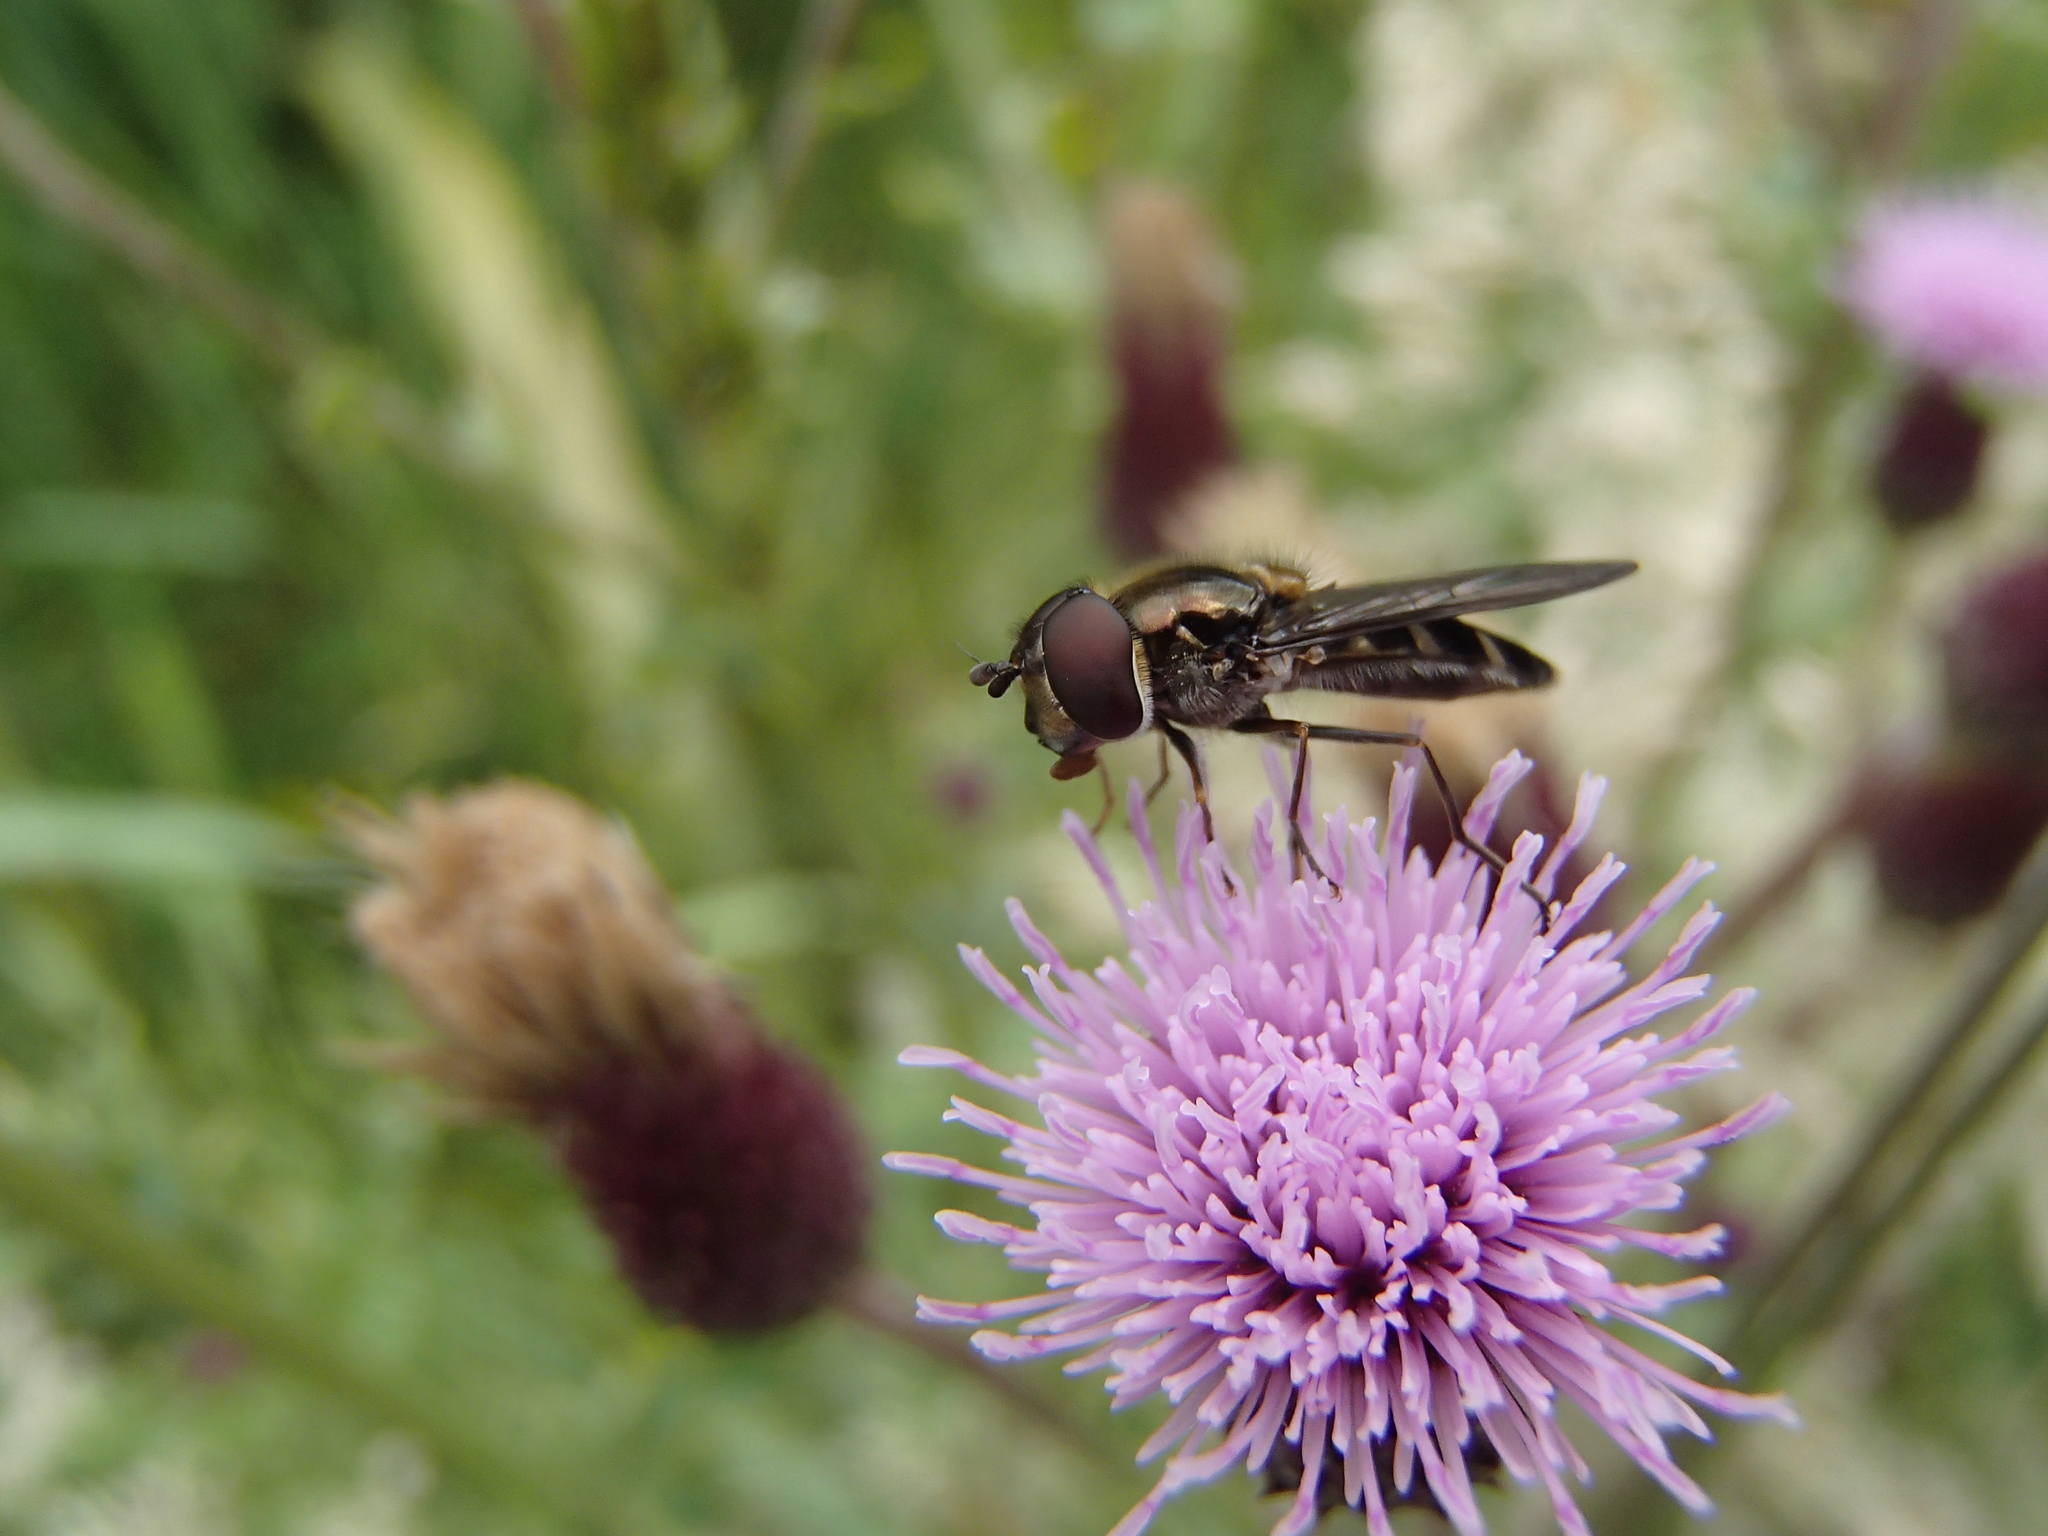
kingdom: Animalia
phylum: Arthropoda
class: Insecta
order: Diptera
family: Syrphidae
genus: Melangyna
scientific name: Melangyna novaezelandiae
